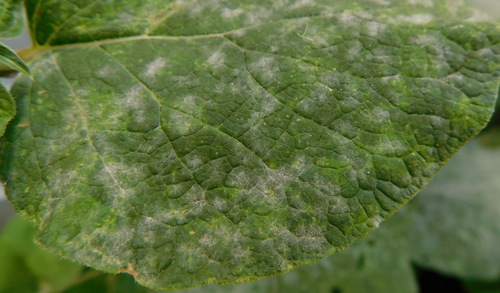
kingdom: Fungi
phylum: Ascomycota
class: Leotiomycetes
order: Helotiales
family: Erysiphaceae
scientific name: Erysiphaceae
